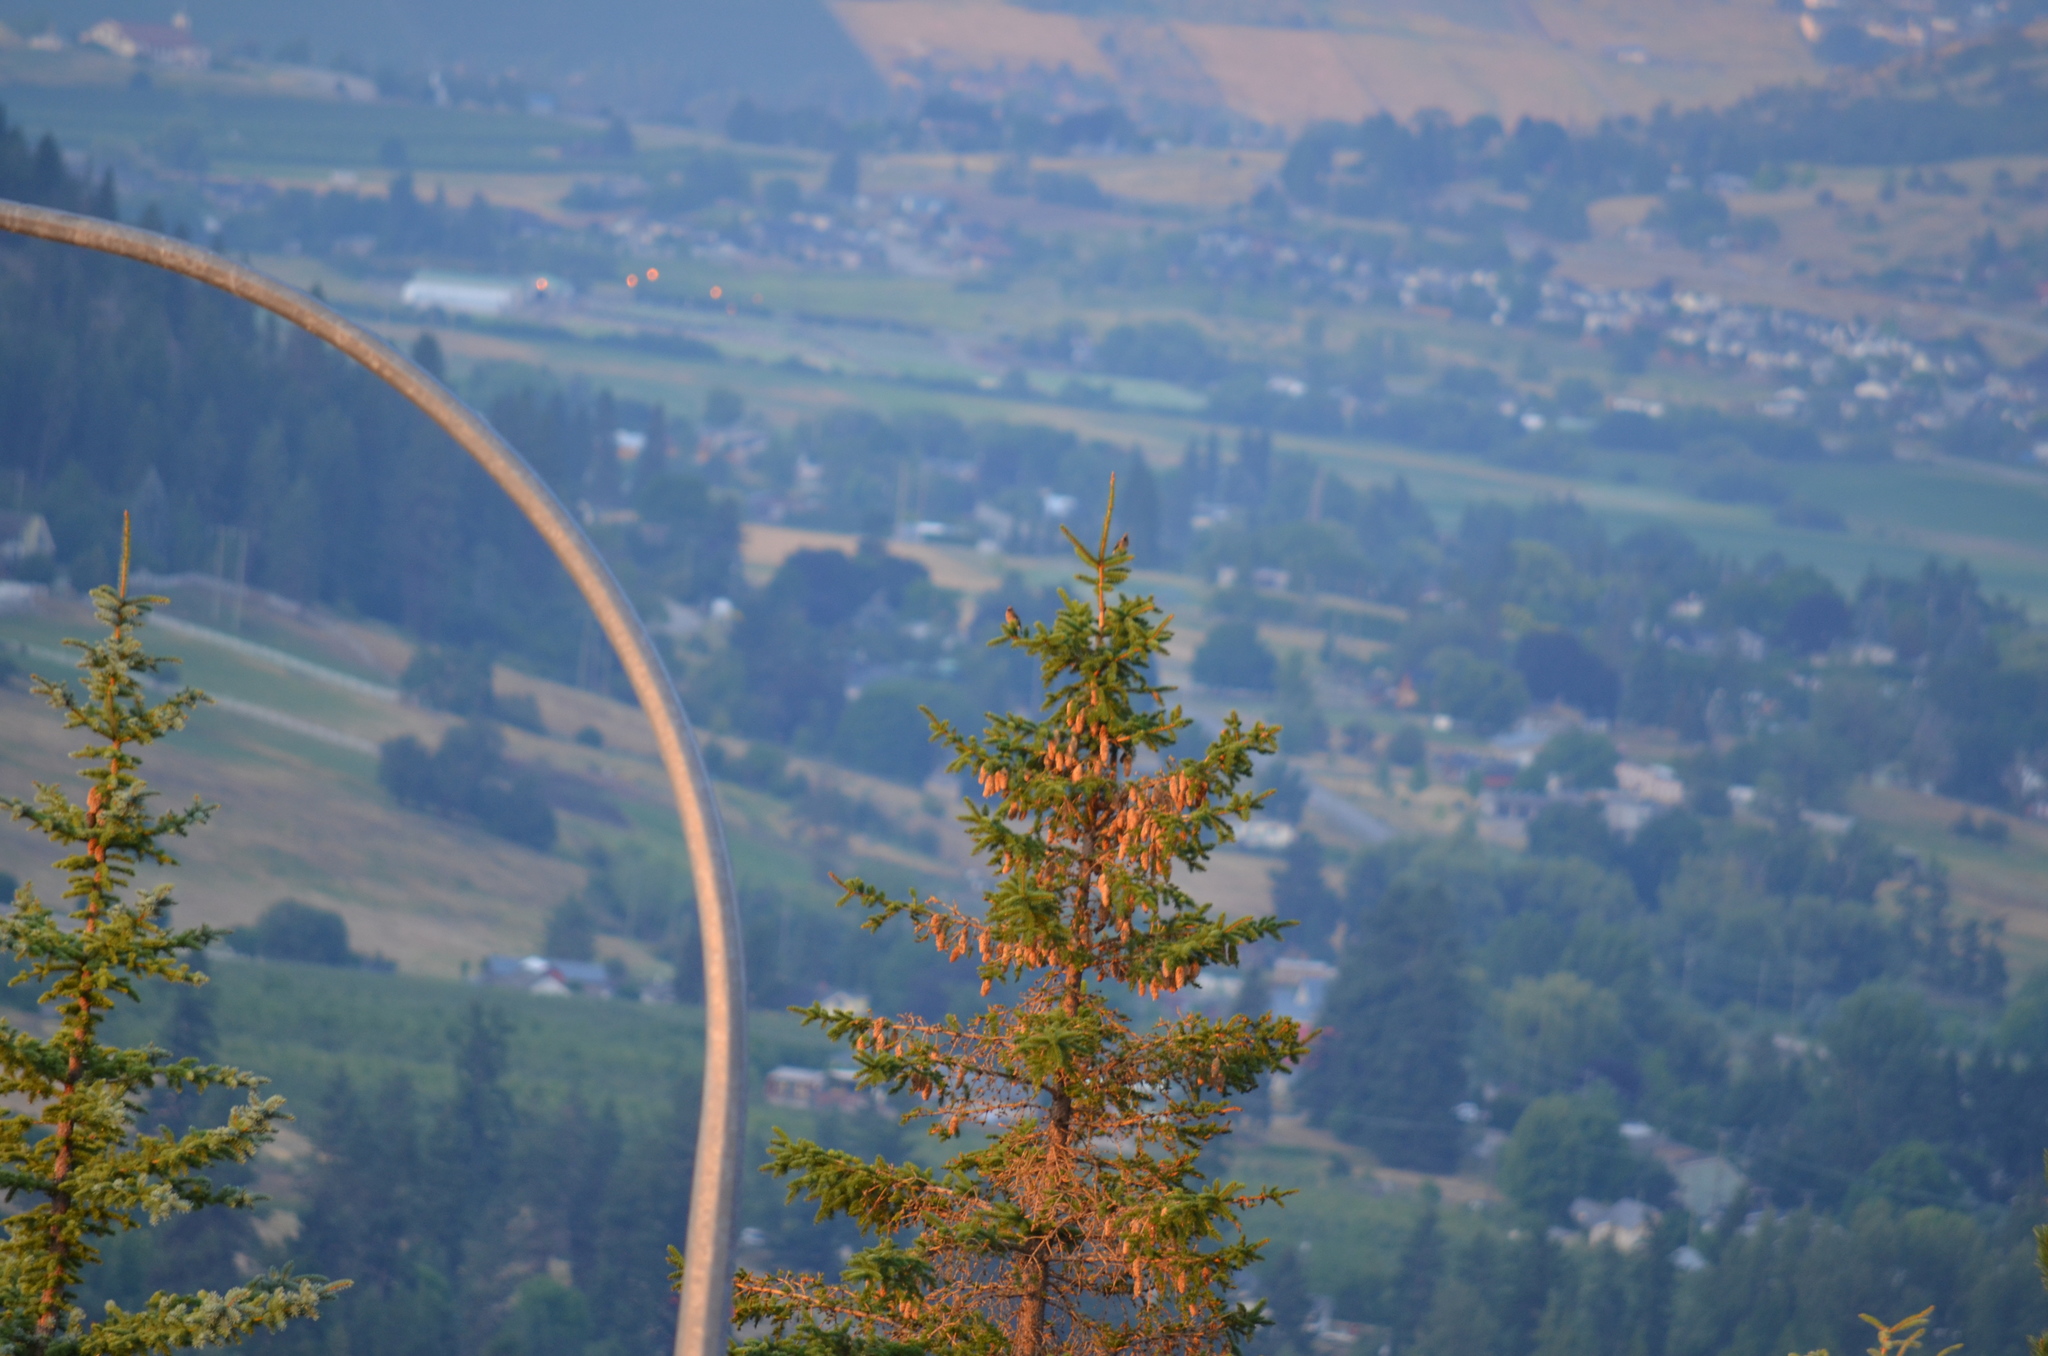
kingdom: Animalia
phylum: Chordata
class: Aves
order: Passeriformes
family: Bombycillidae
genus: Bombycilla
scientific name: Bombycilla cedrorum
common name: Cedar waxwing
